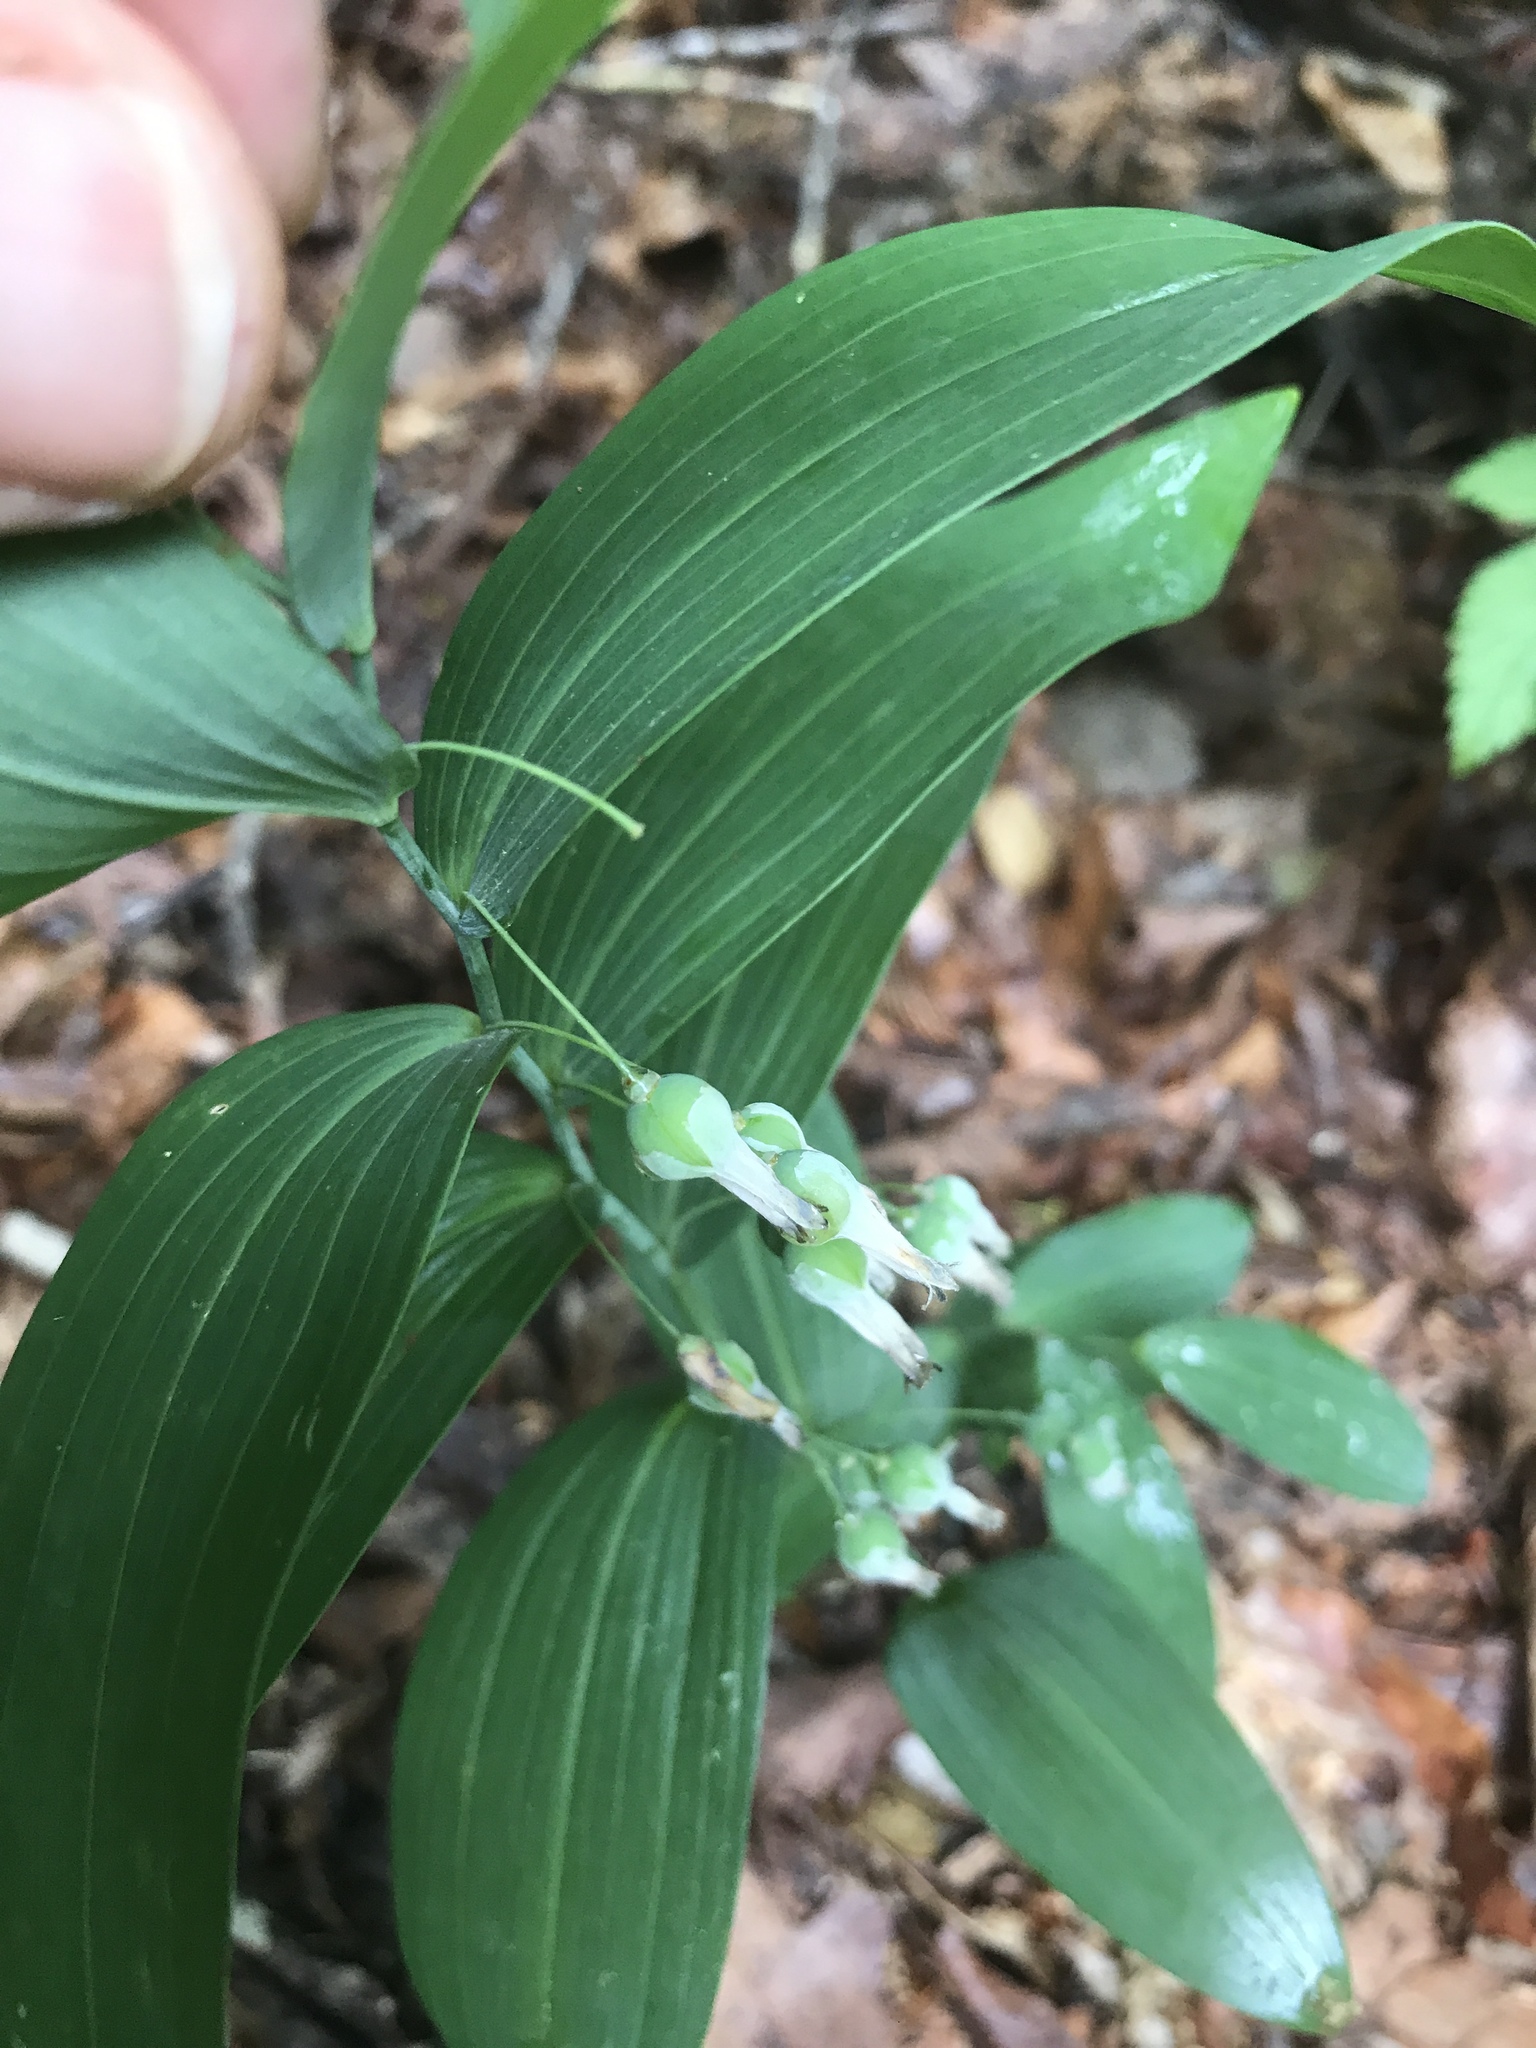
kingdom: Plantae
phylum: Tracheophyta
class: Liliopsida
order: Asparagales
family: Asparagaceae
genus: Polygonatum
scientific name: Polygonatum biflorum
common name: American solomon's-seal
